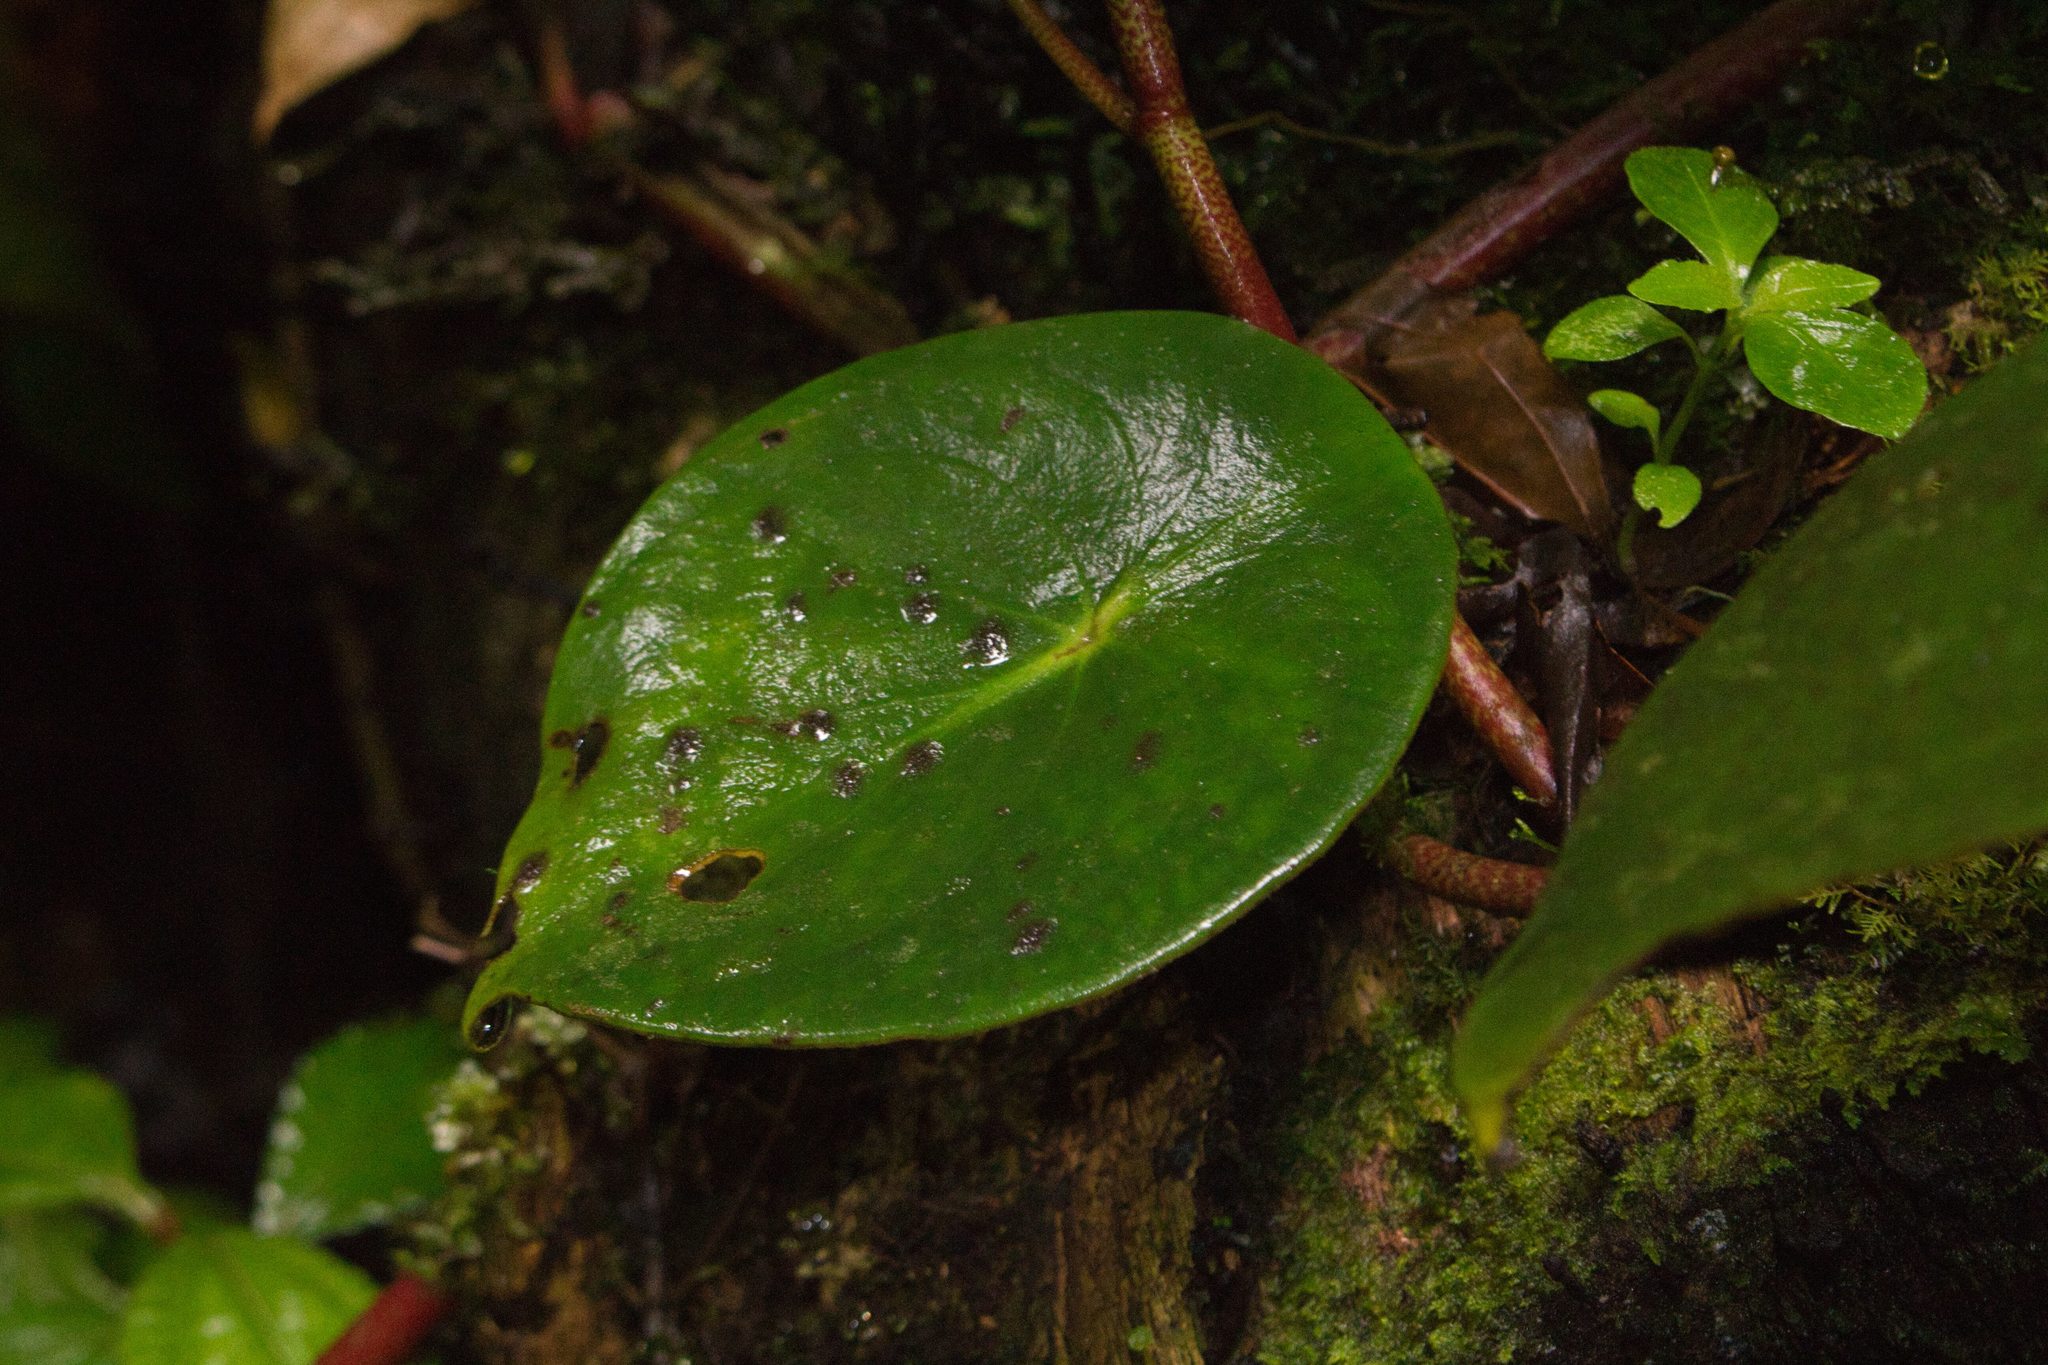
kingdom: Plantae
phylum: Tracheophyta
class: Magnoliopsida
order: Piperales
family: Piperaceae
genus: Peperomia
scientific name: Peperomia hernandiifolia
